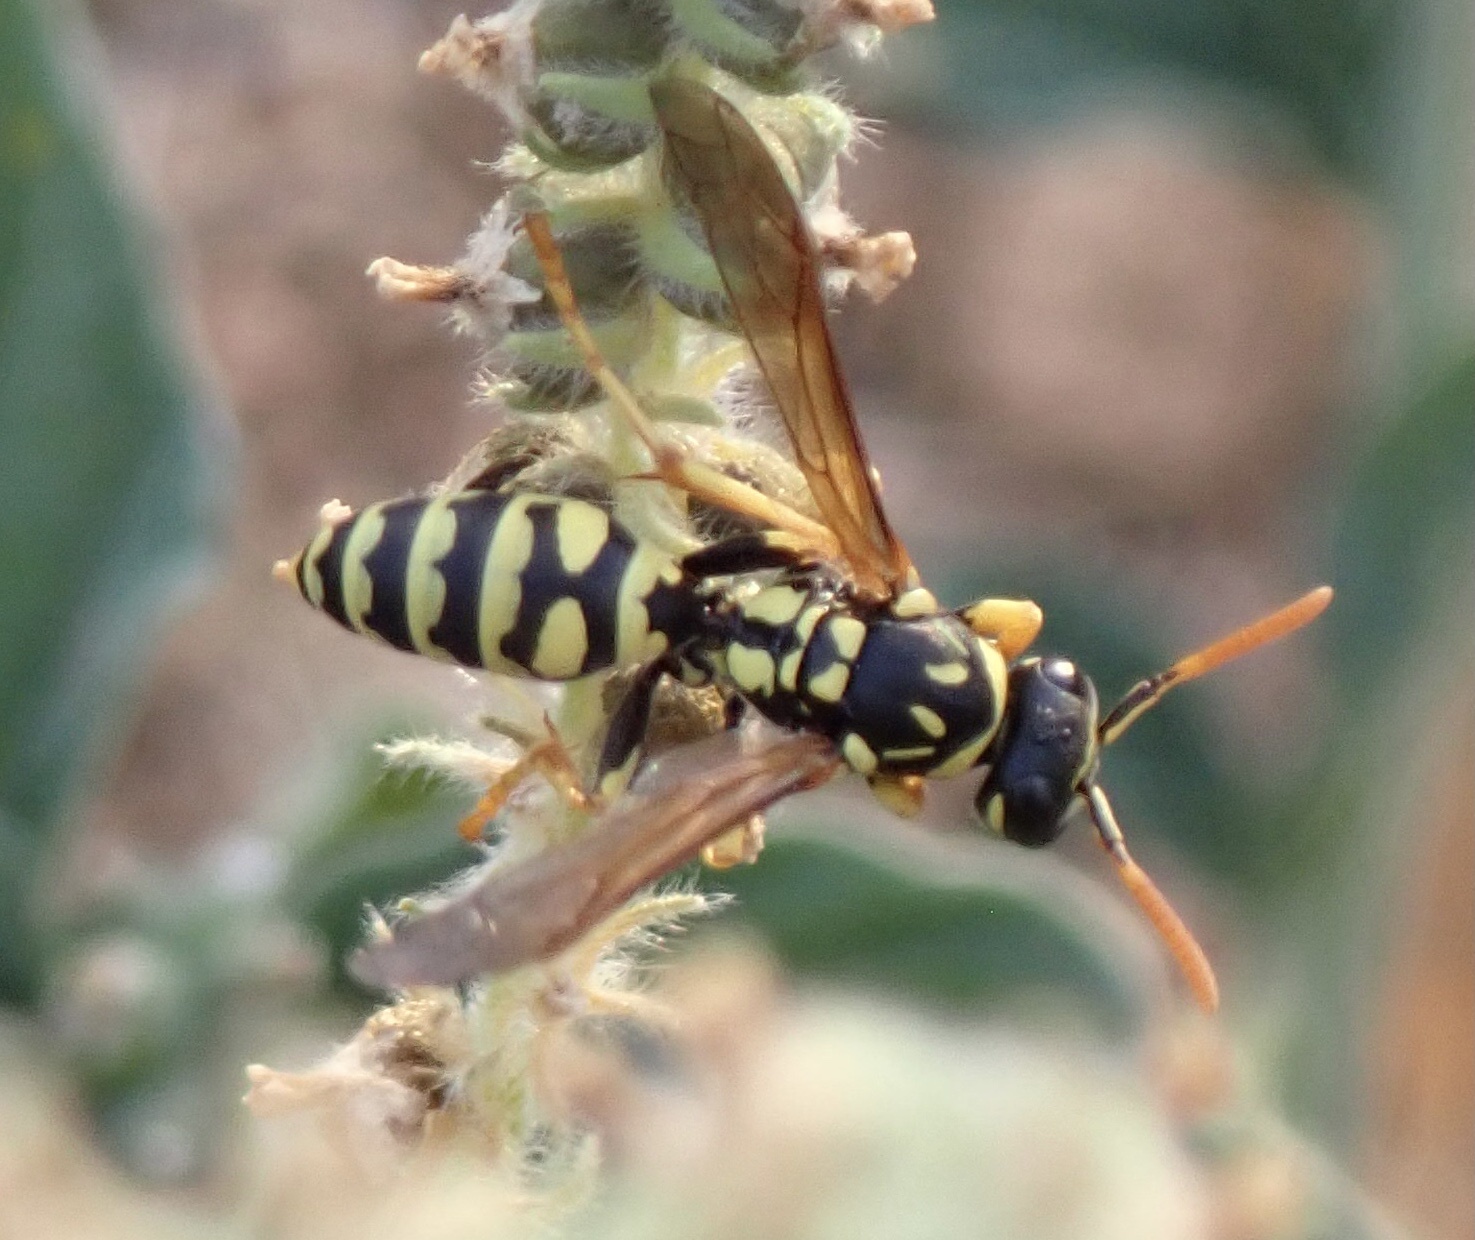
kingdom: Animalia
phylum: Arthropoda
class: Insecta
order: Hymenoptera
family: Eumenidae
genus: Polistes
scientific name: Polistes gallicus
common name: Paper wasp
